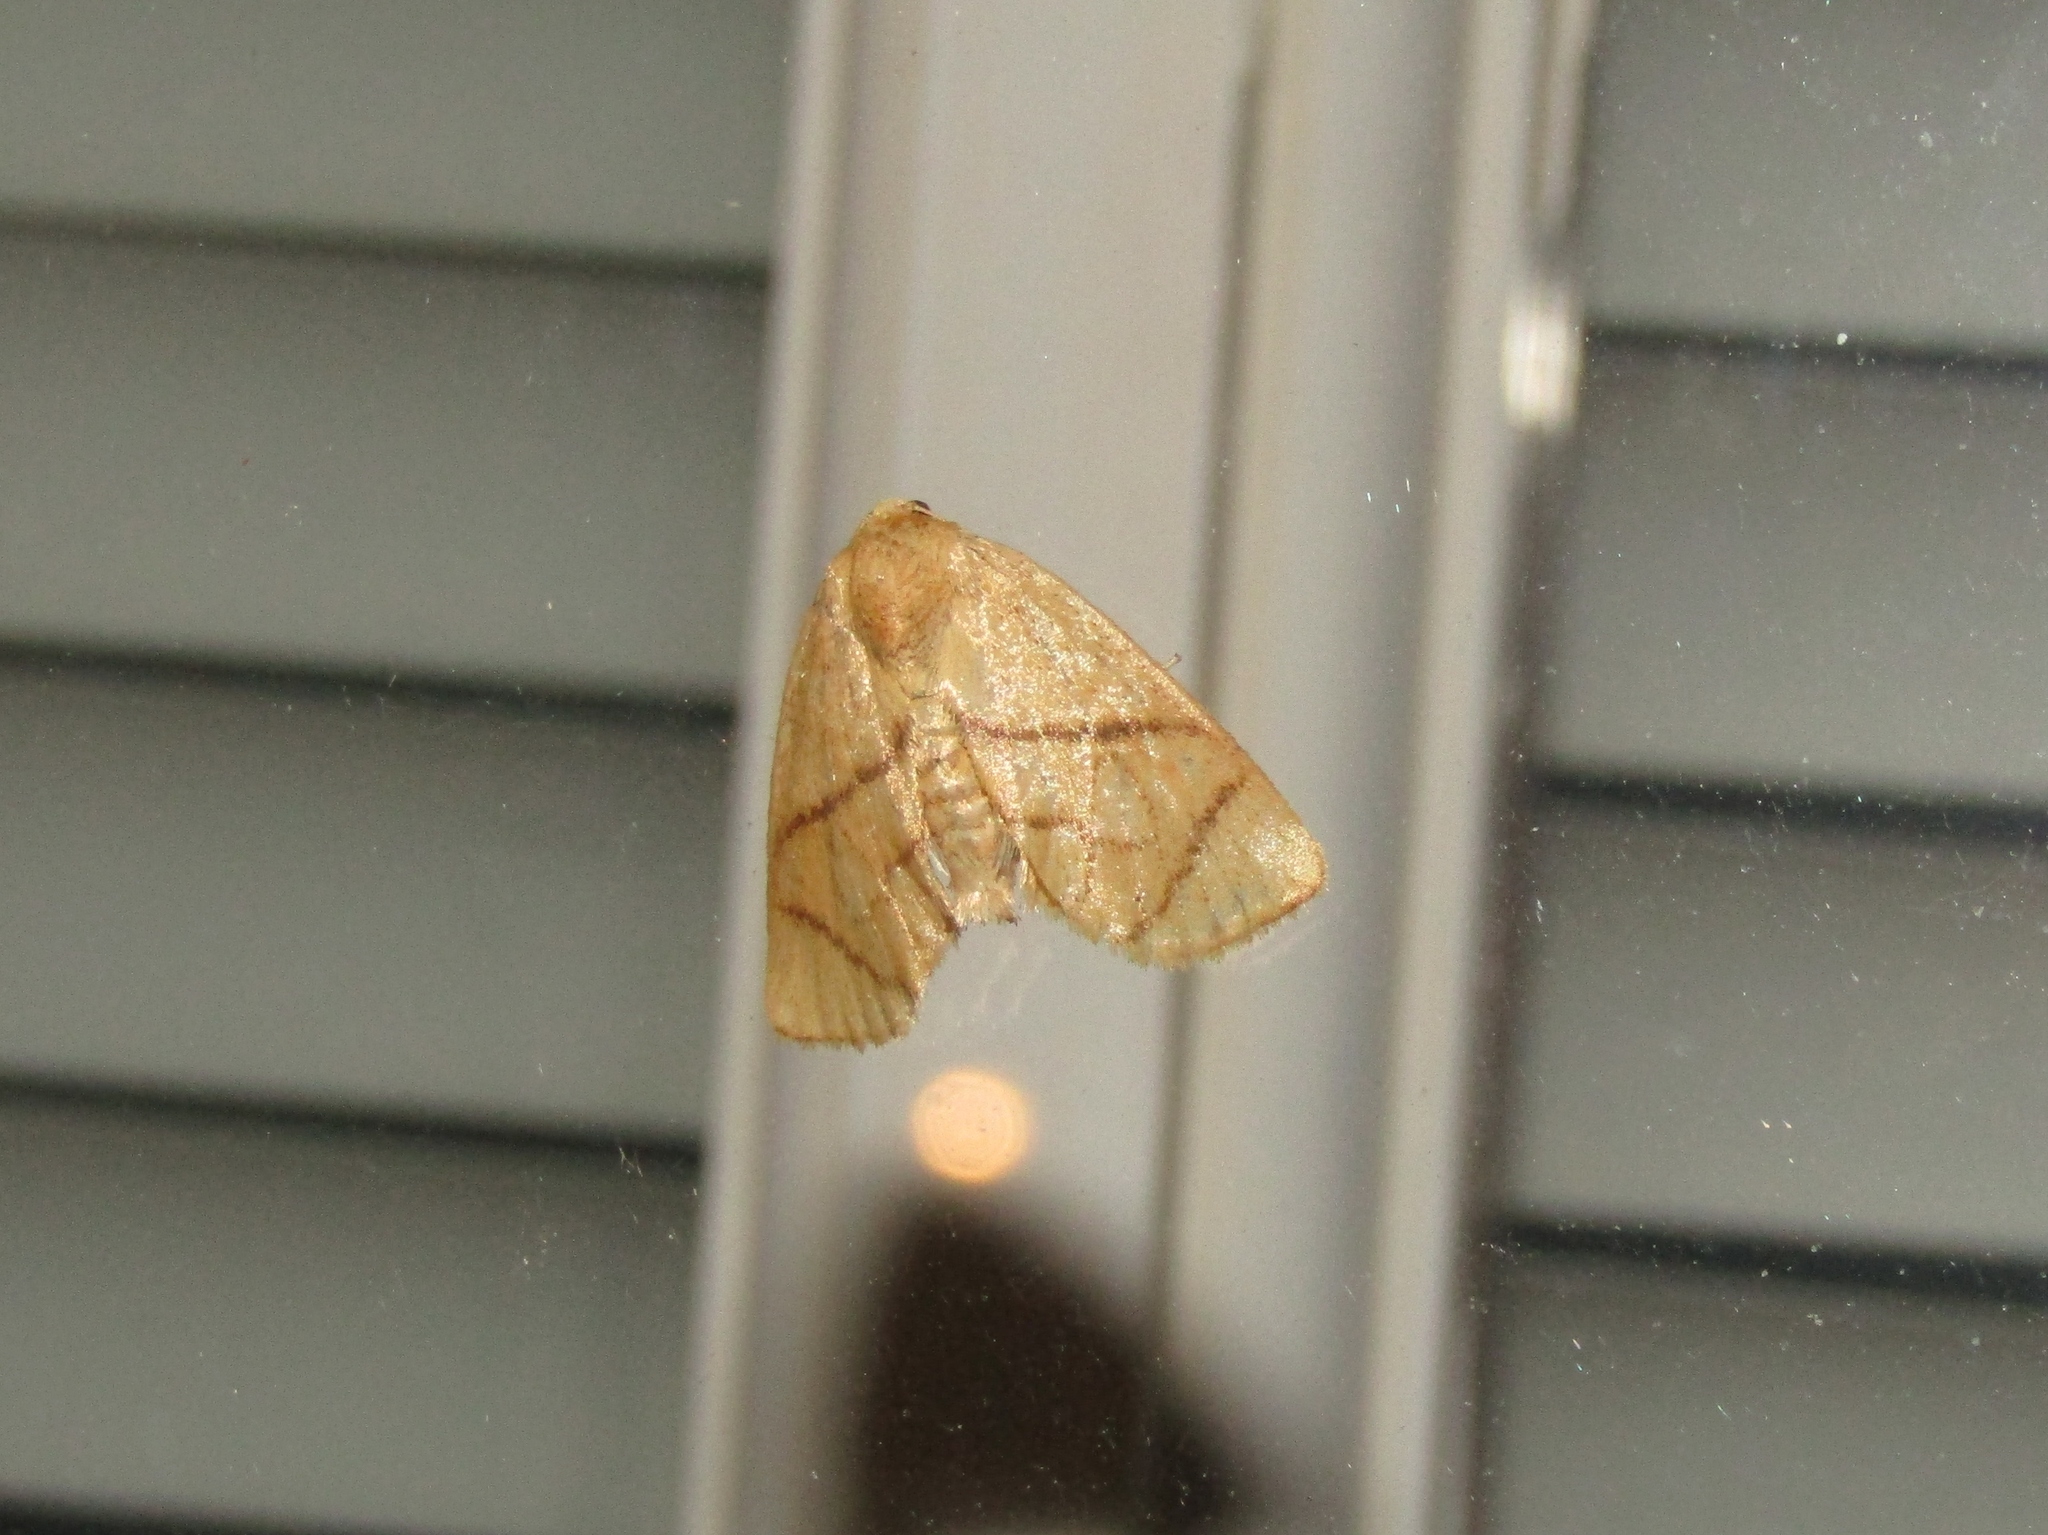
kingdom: Animalia
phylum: Arthropoda
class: Insecta
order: Lepidoptera
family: Limacodidae
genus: Apoda
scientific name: Apoda y-inversa
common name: Yellow-collared slug moth
